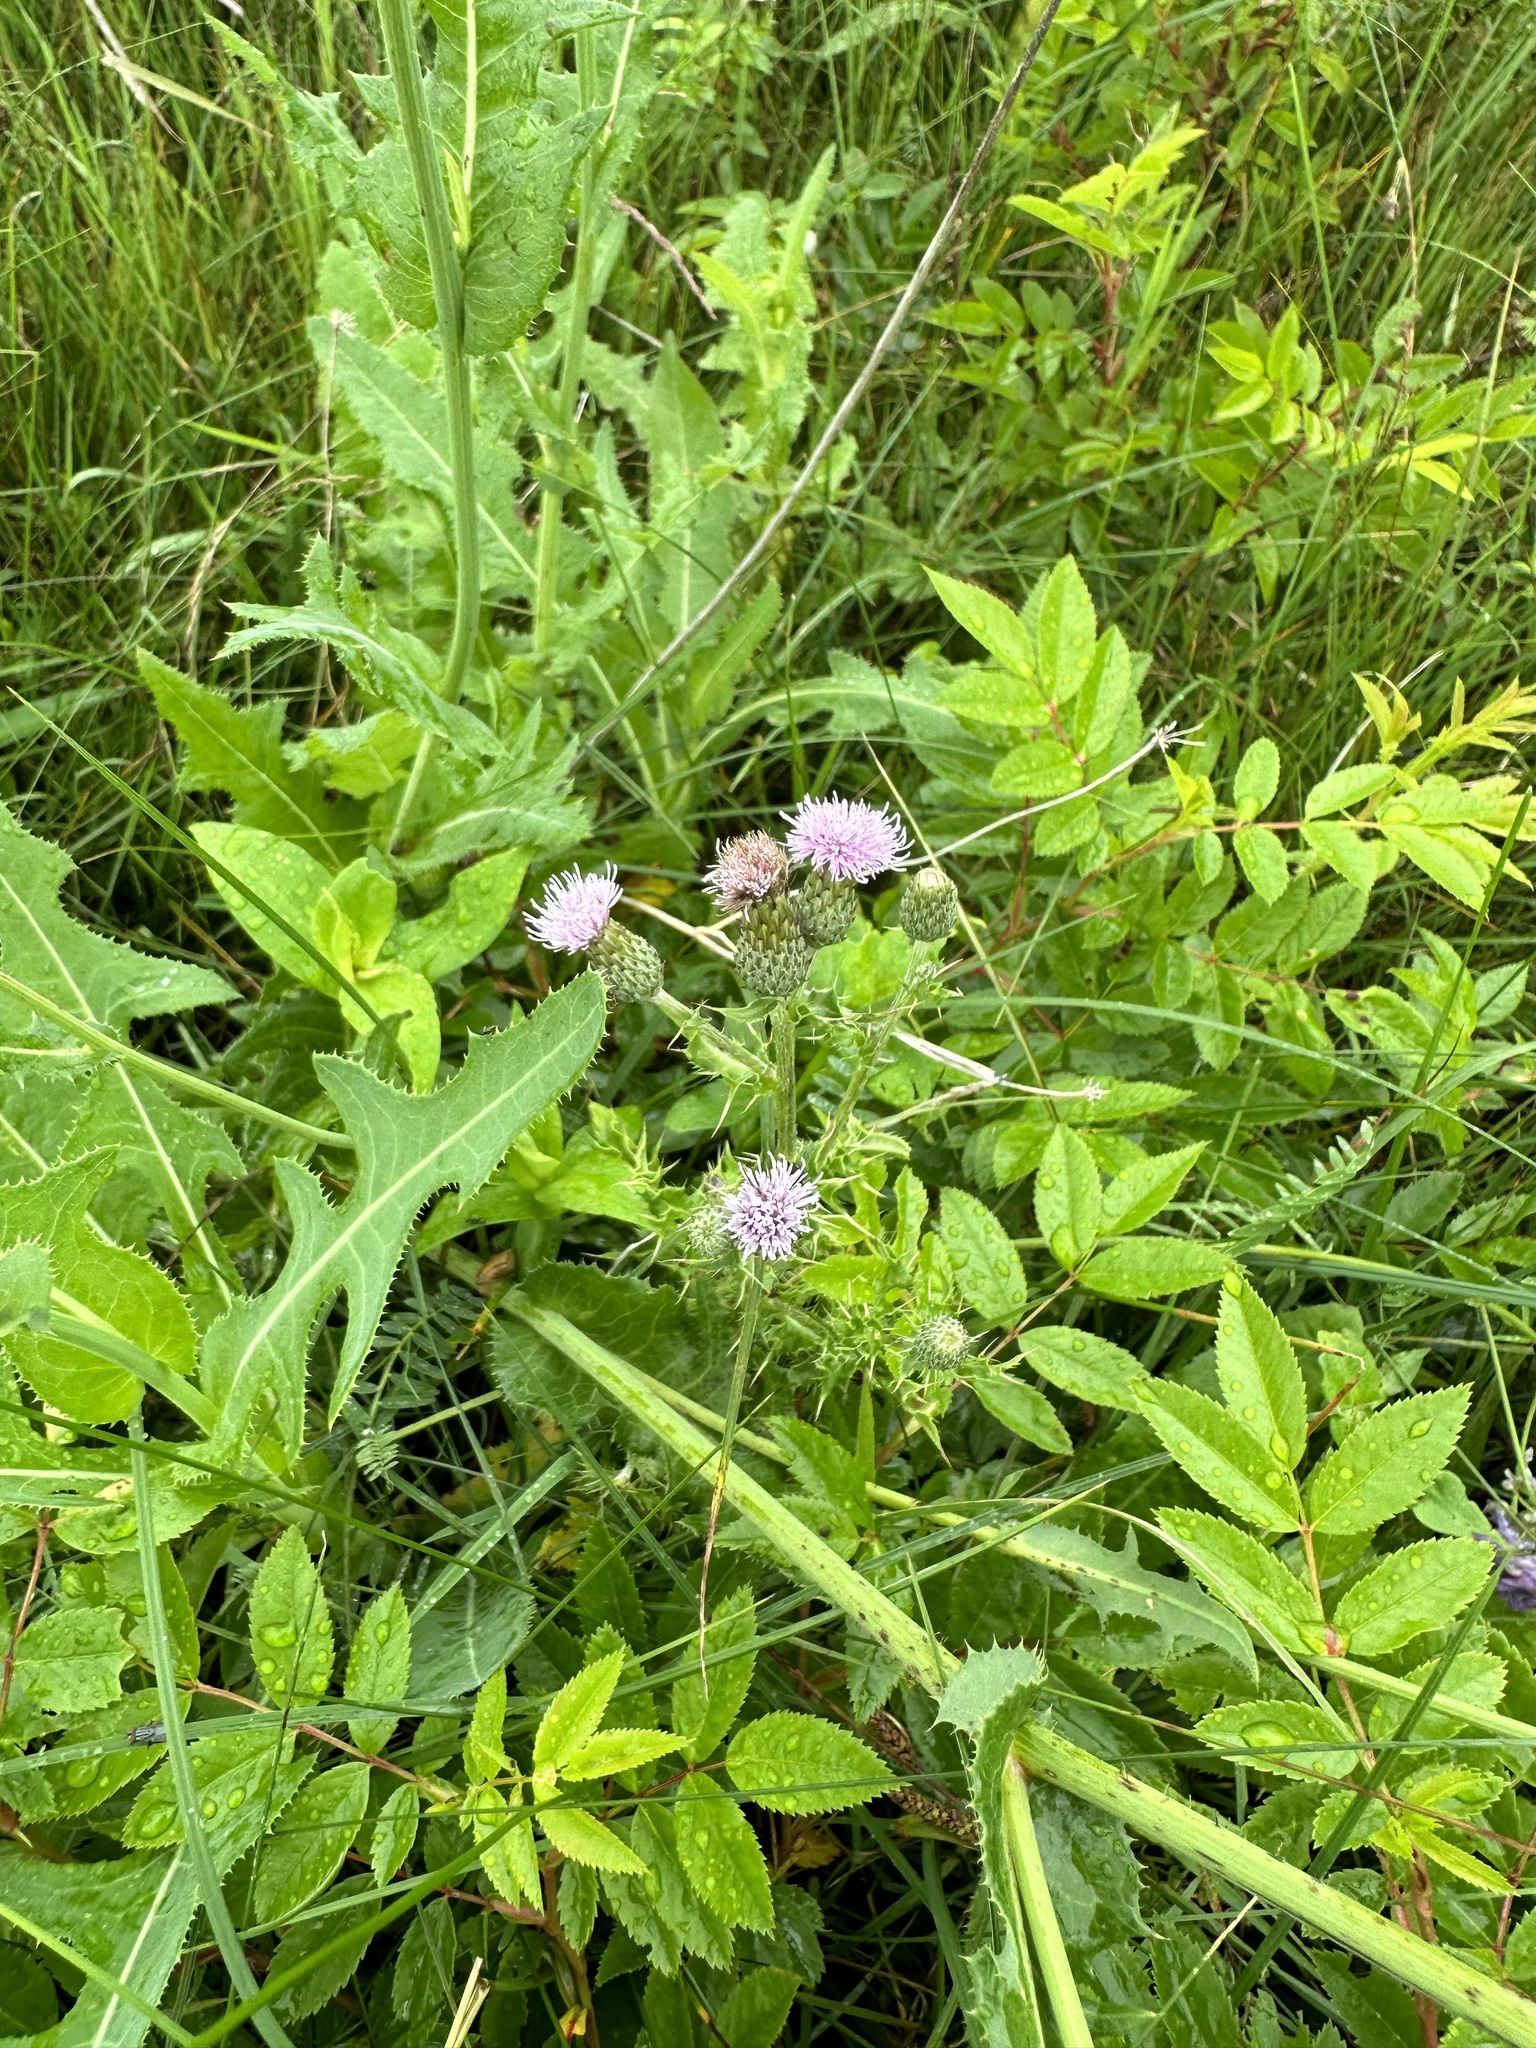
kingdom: Plantae
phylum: Tracheophyta
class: Magnoliopsida
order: Asterales
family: Asteraceae
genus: Cirsium
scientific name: Cirsium arvense
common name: Creeping thistle
